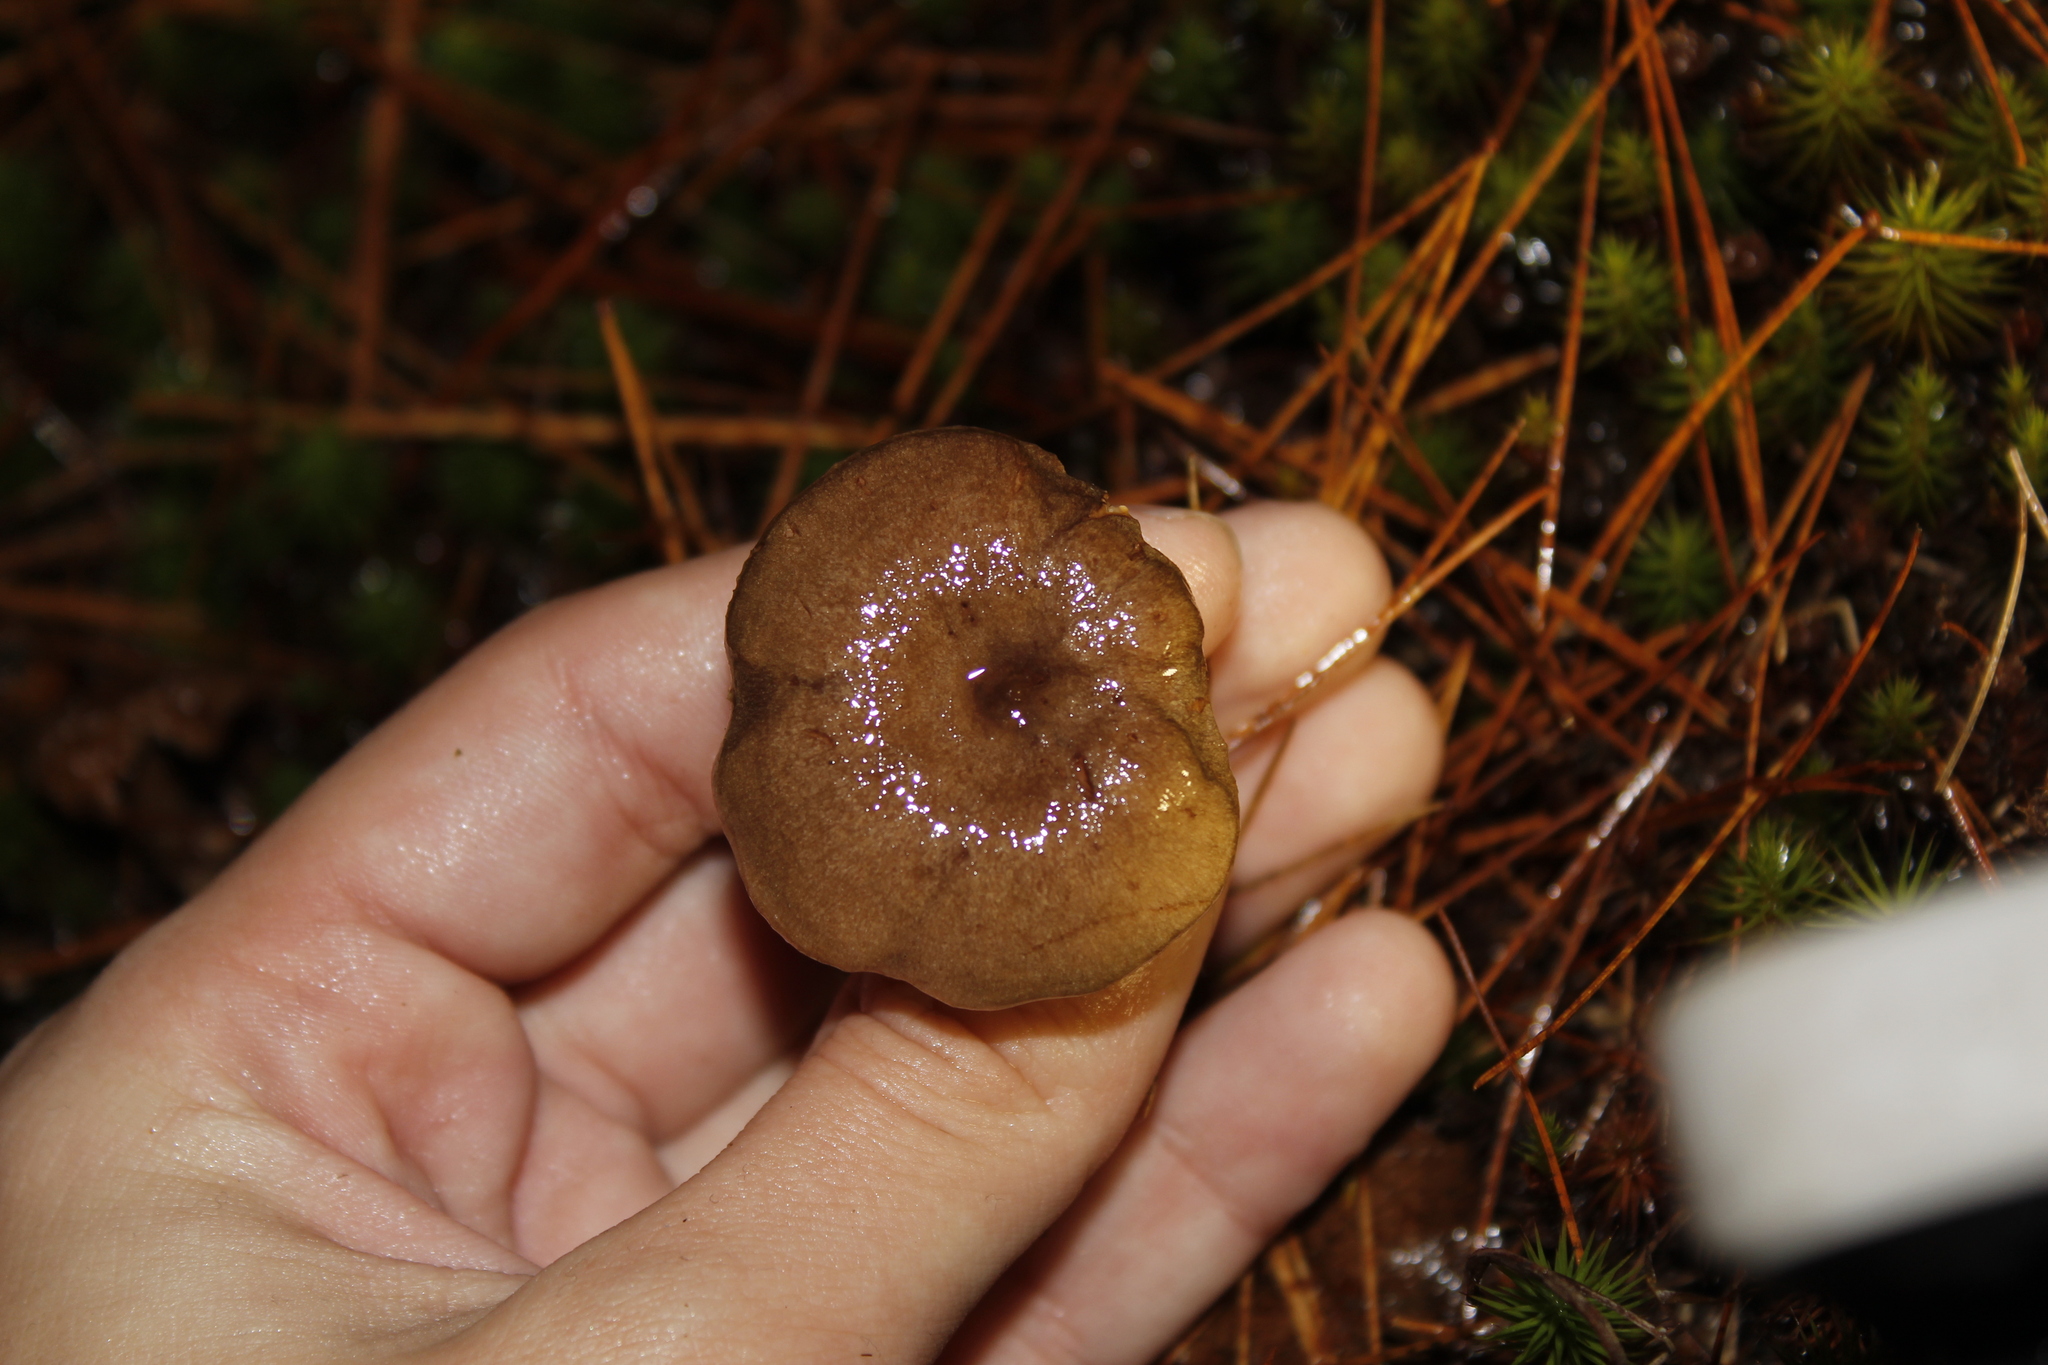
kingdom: Fungi
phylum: Basidiomycota
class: Agaricomycetes
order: Russulales
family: Russulaceae
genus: Lactarius
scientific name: Lactarius mammosus
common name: Pap milkcap
